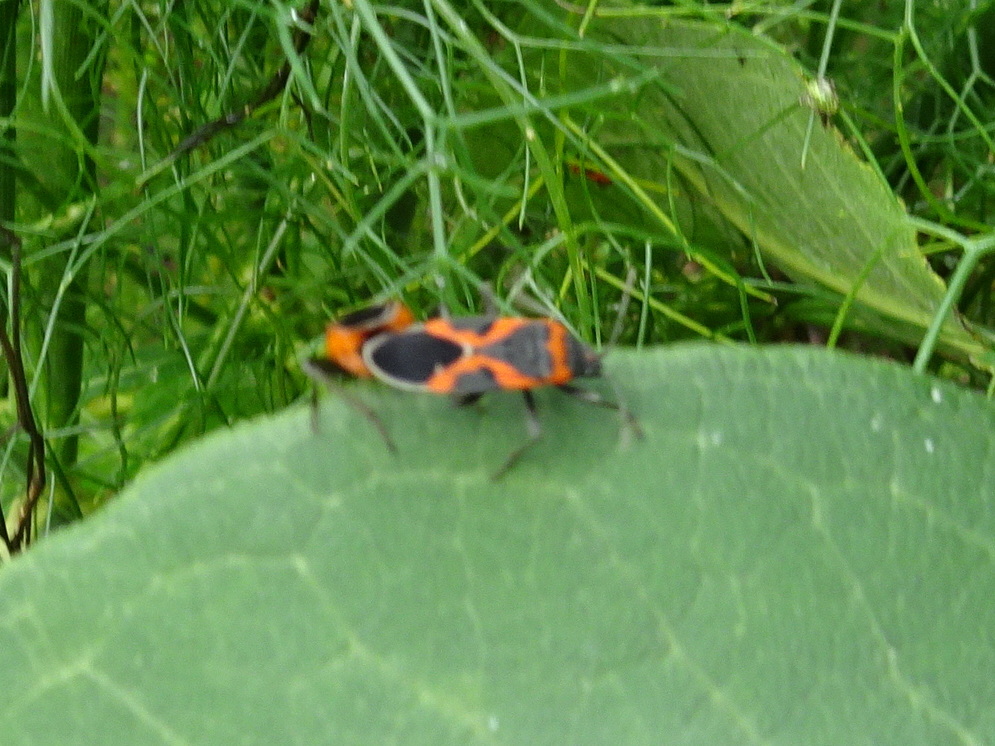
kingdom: Animalia
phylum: Arthropoda
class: Insecta
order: Hemiptera
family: Lygaeidae
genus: Lygaeus
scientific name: Lygaeus kalmii
